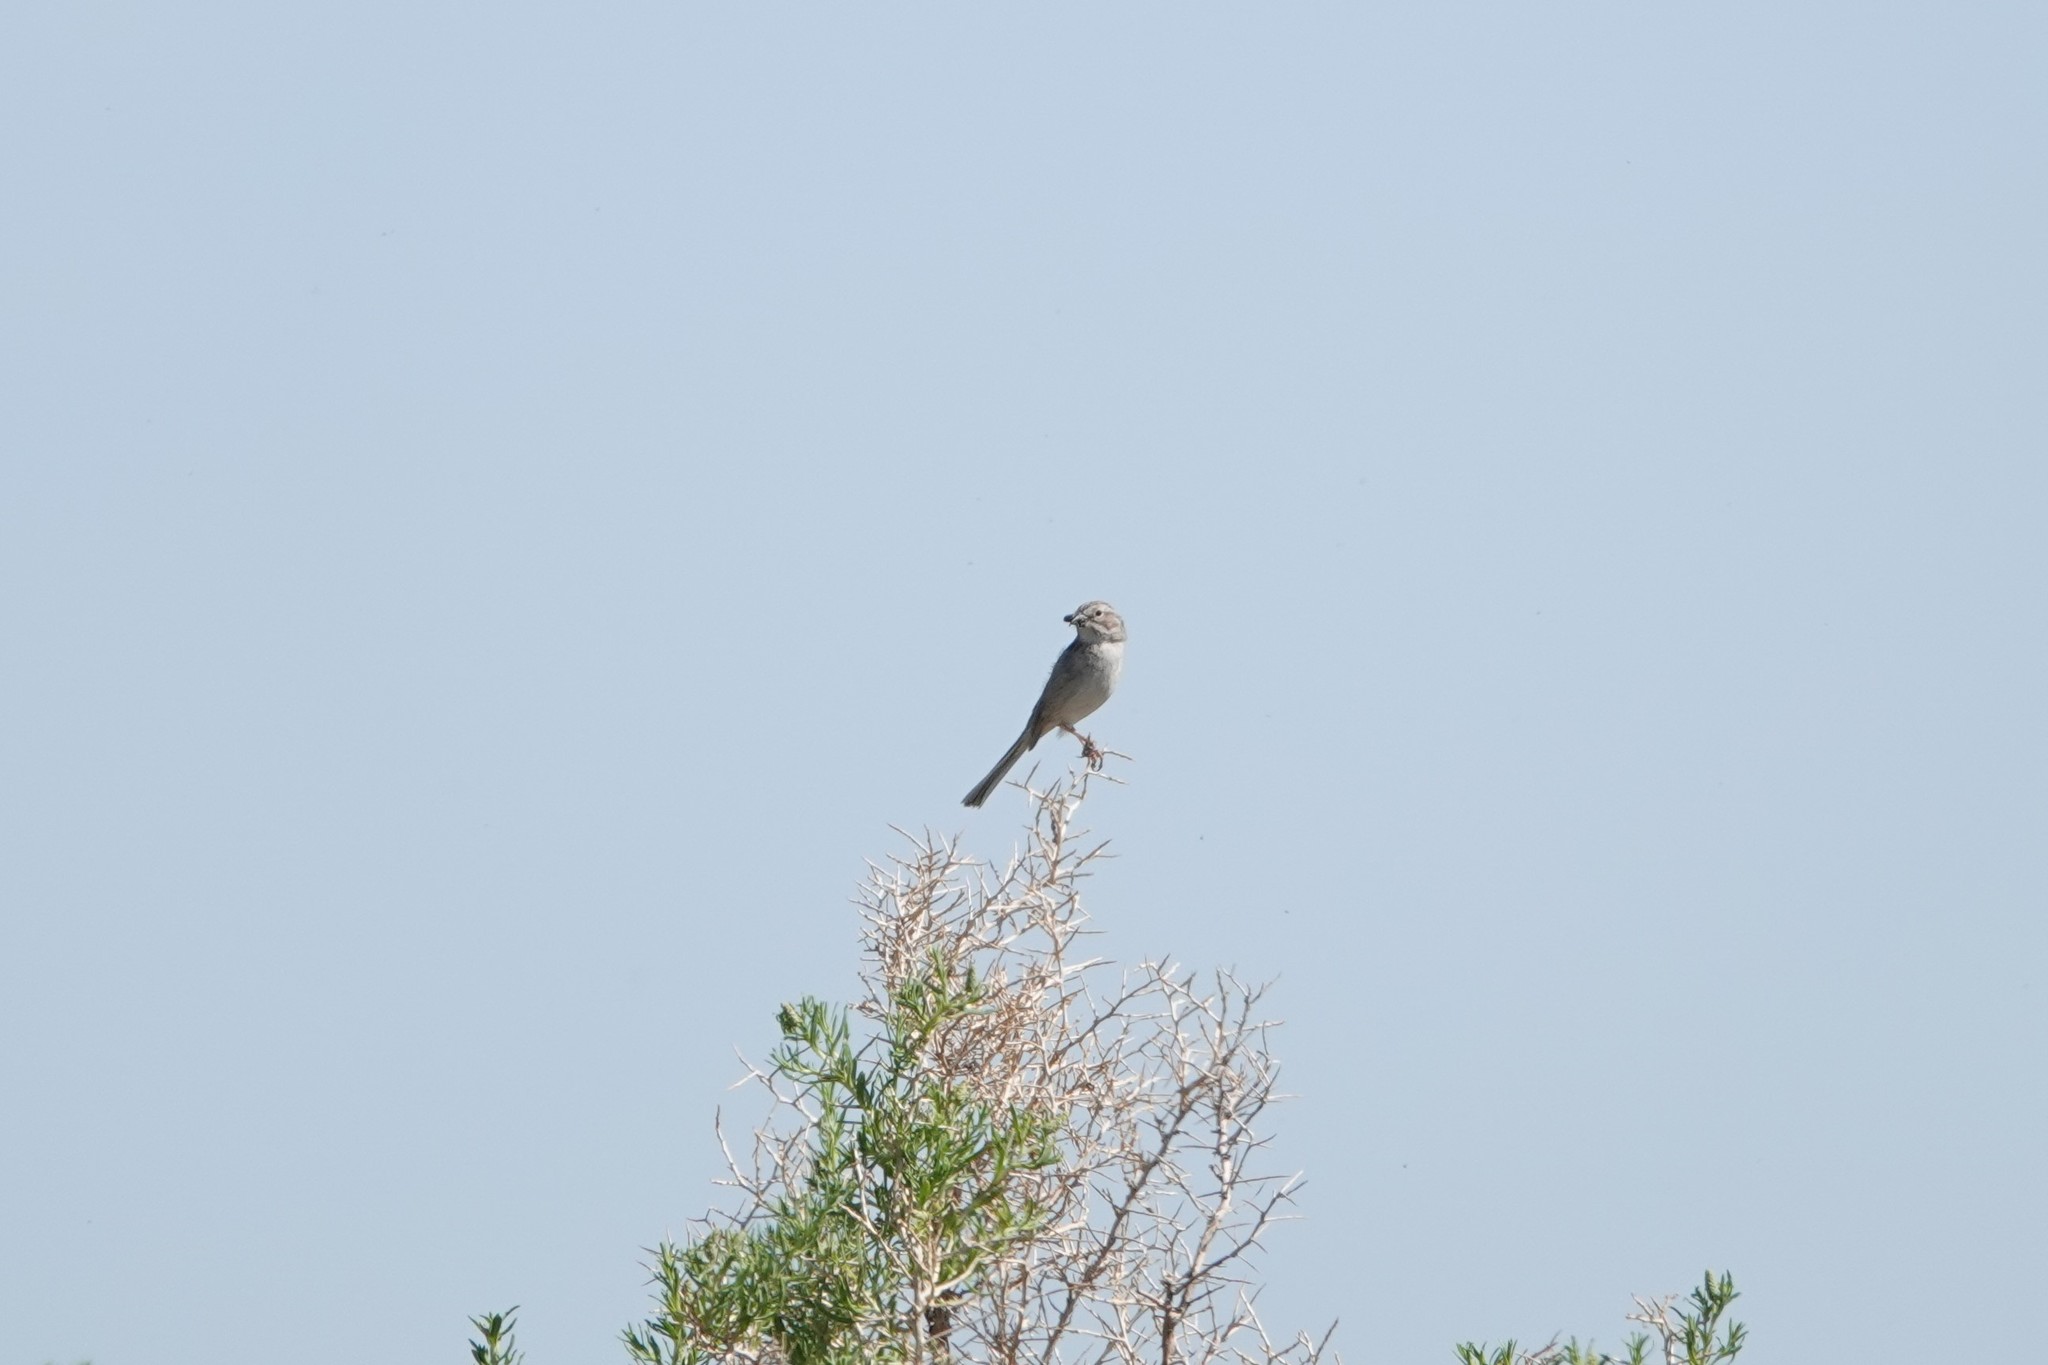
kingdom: Animalia
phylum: Chordata
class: Aves
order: Passeriformes
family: Passerellidae
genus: Spizella
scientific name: Spizella breweri
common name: Brewer's sparrow
